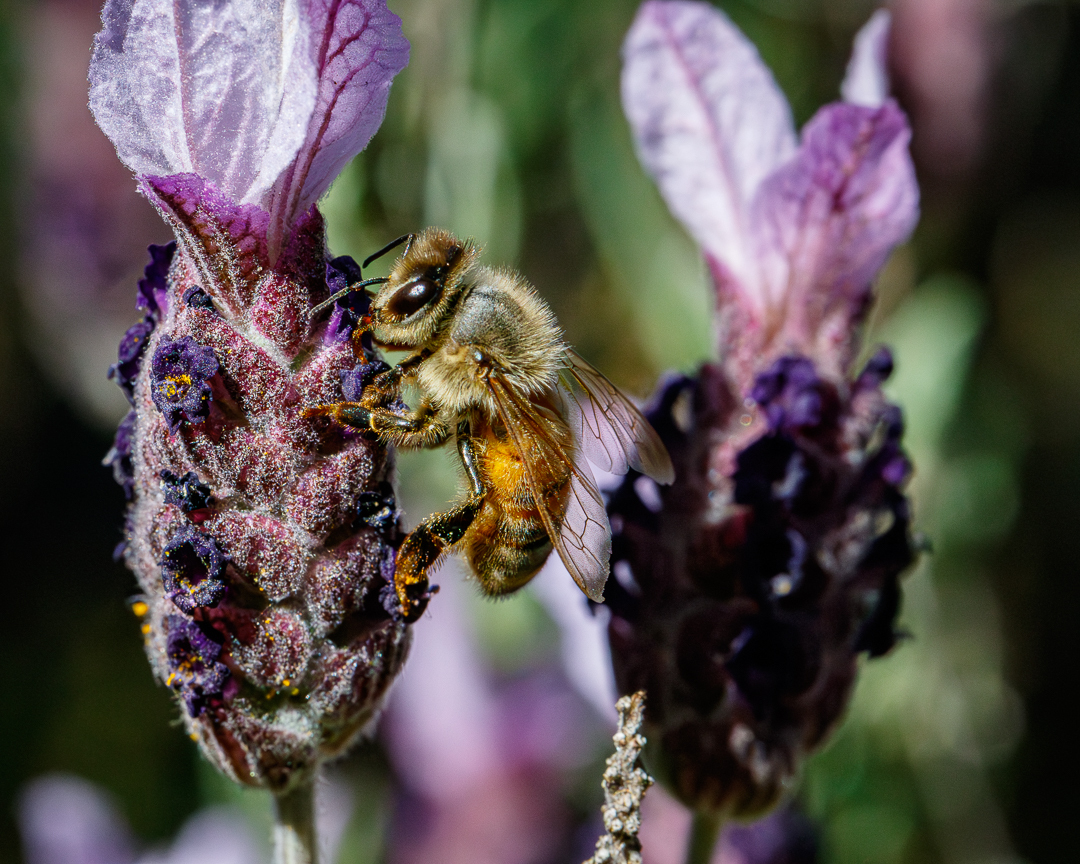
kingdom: Animalia
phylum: Arthropoda
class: Insecta
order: Hymenoptera
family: Apidae
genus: Apis
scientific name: Apis mellifera
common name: Honey bee
